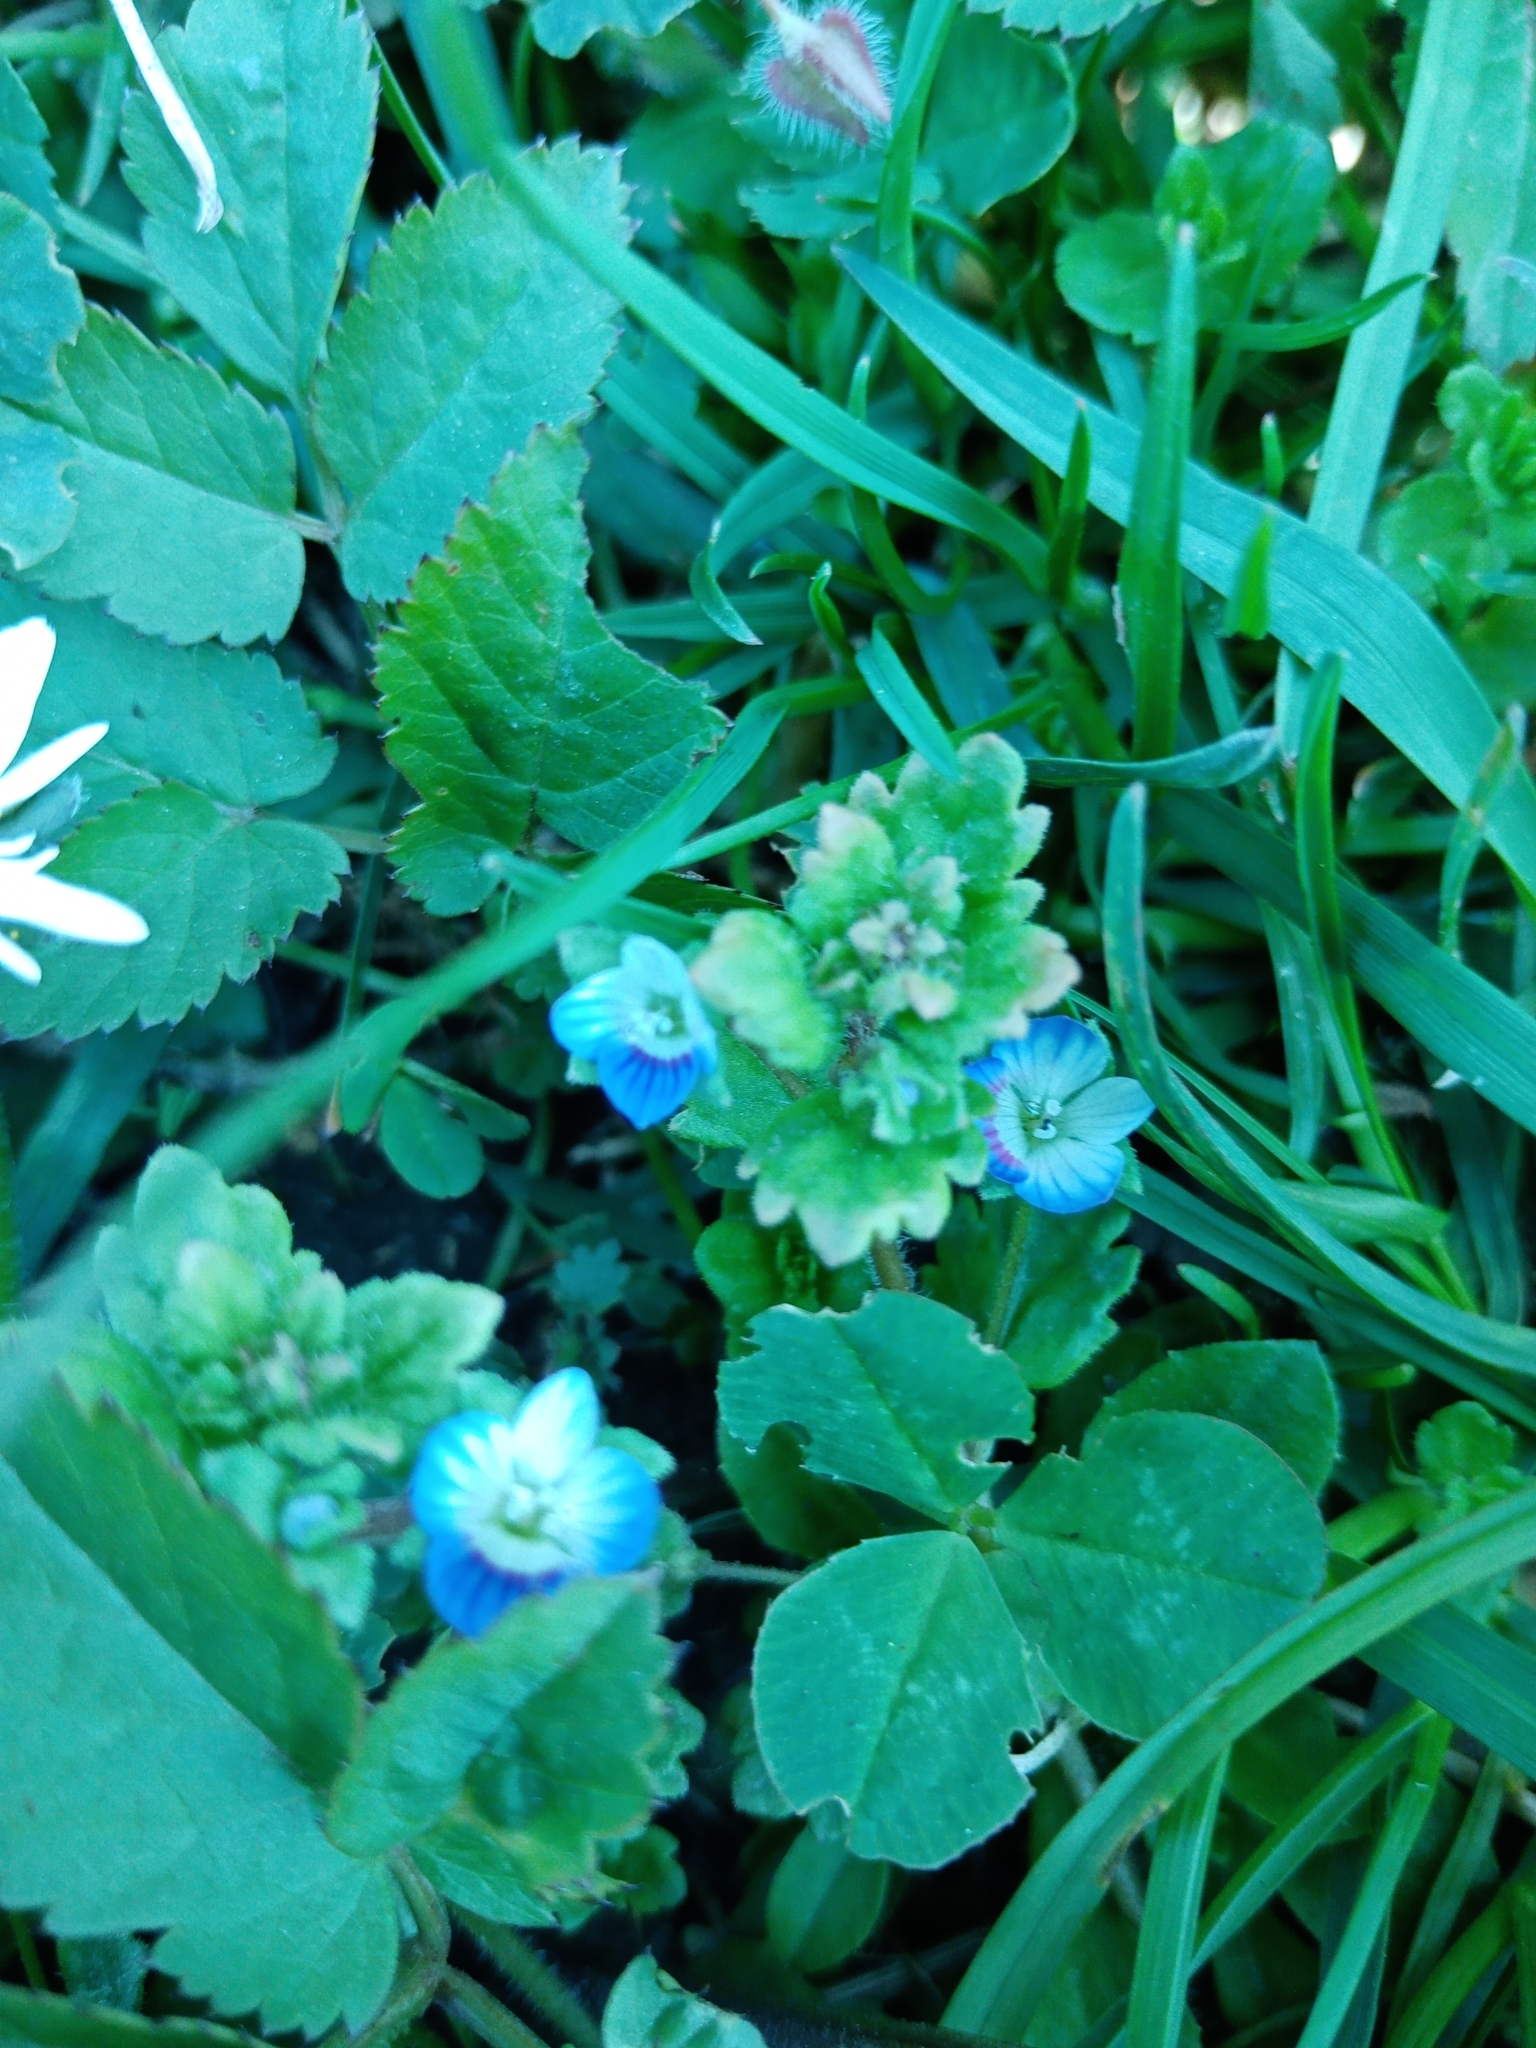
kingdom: Plantae
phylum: Tracheophyta
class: Magnoliopsida
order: Lamiales
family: Plantaginaceae
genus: Veronica
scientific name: Veronica persica
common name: Common field-speedwell
